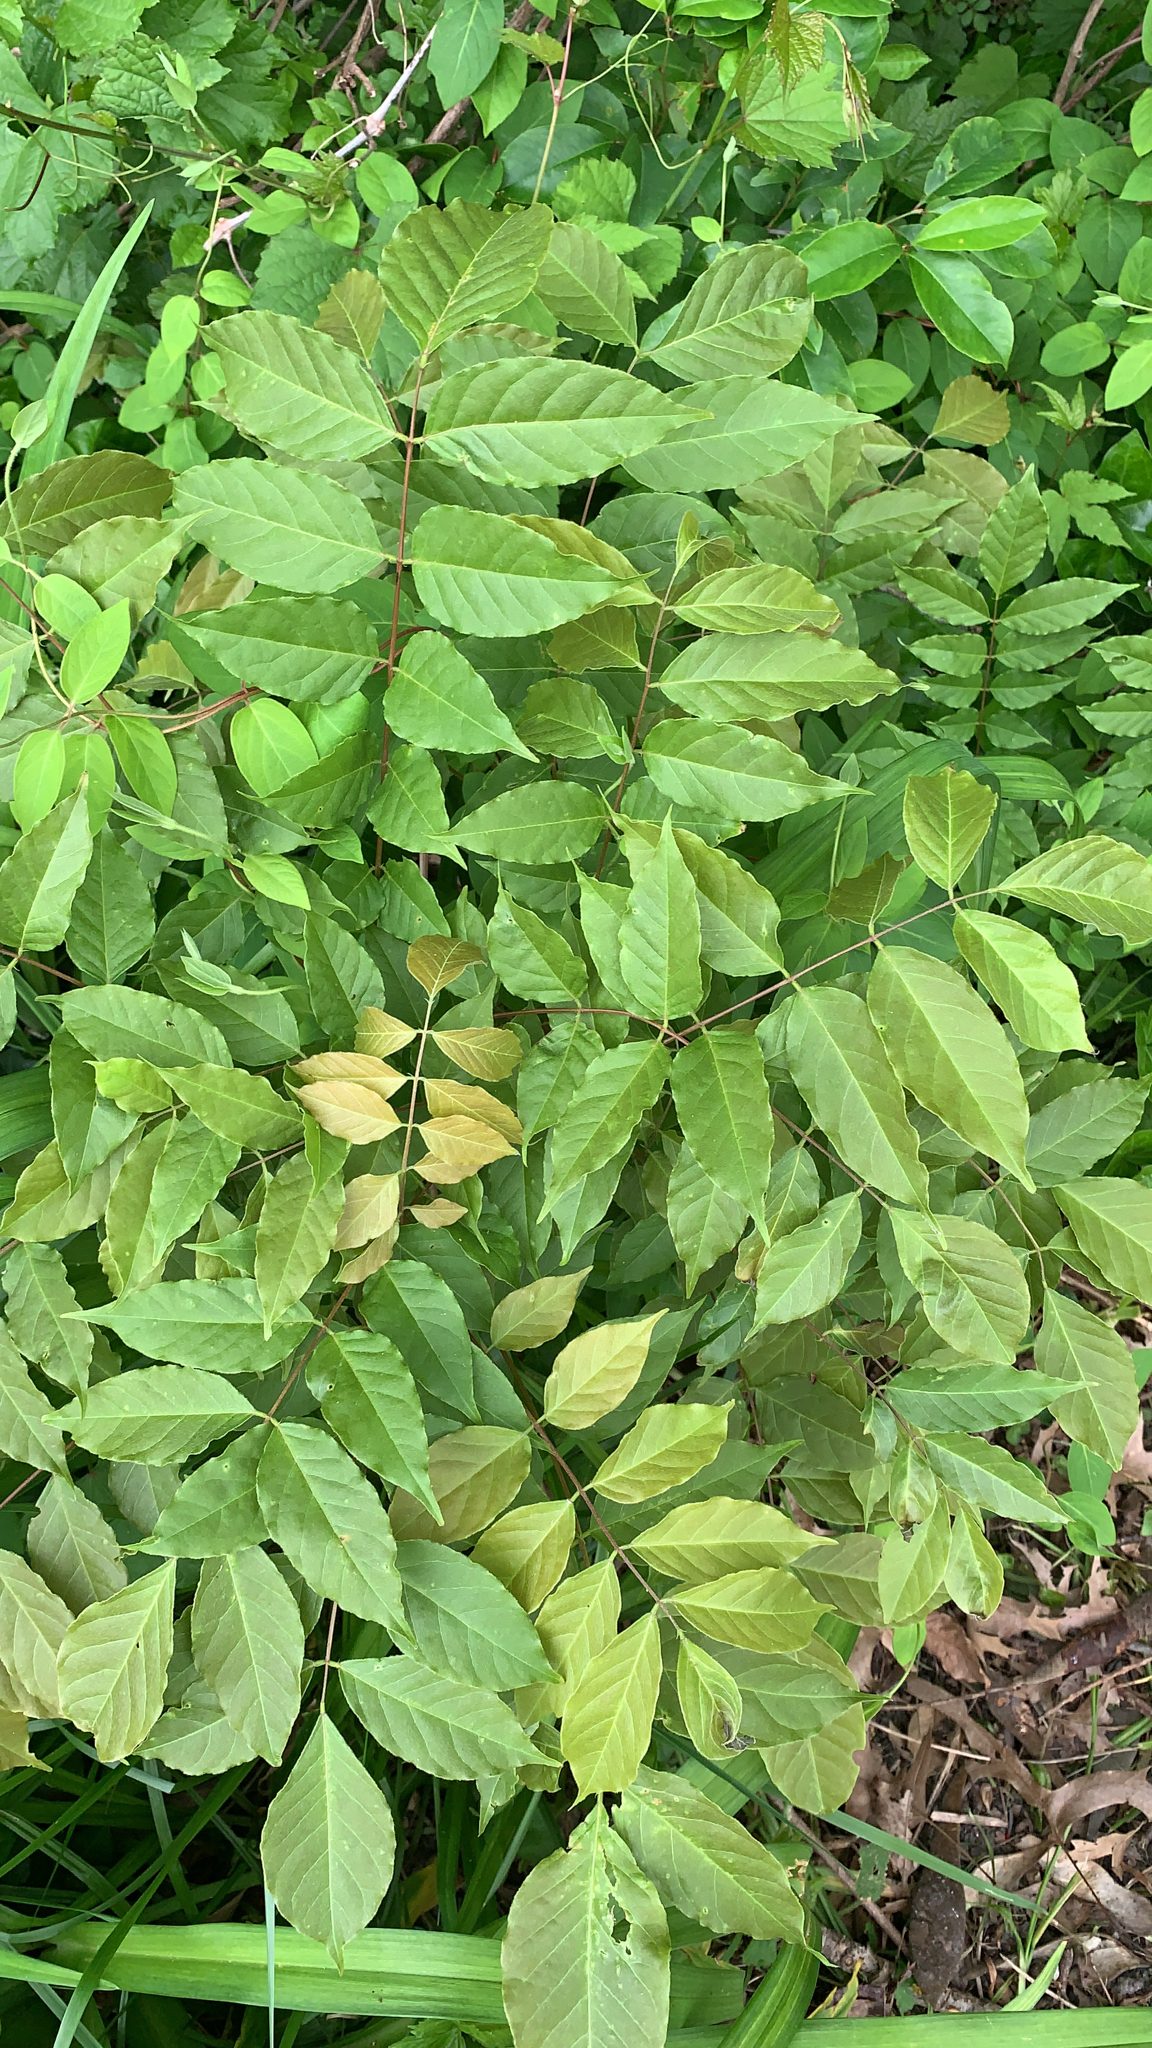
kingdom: Plantae
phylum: Tracheophyta
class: Magnoliopsida
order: Fabales
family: Fabaceae
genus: Wisteria
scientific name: Wisteria sinensis
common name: Chinese wisteria
